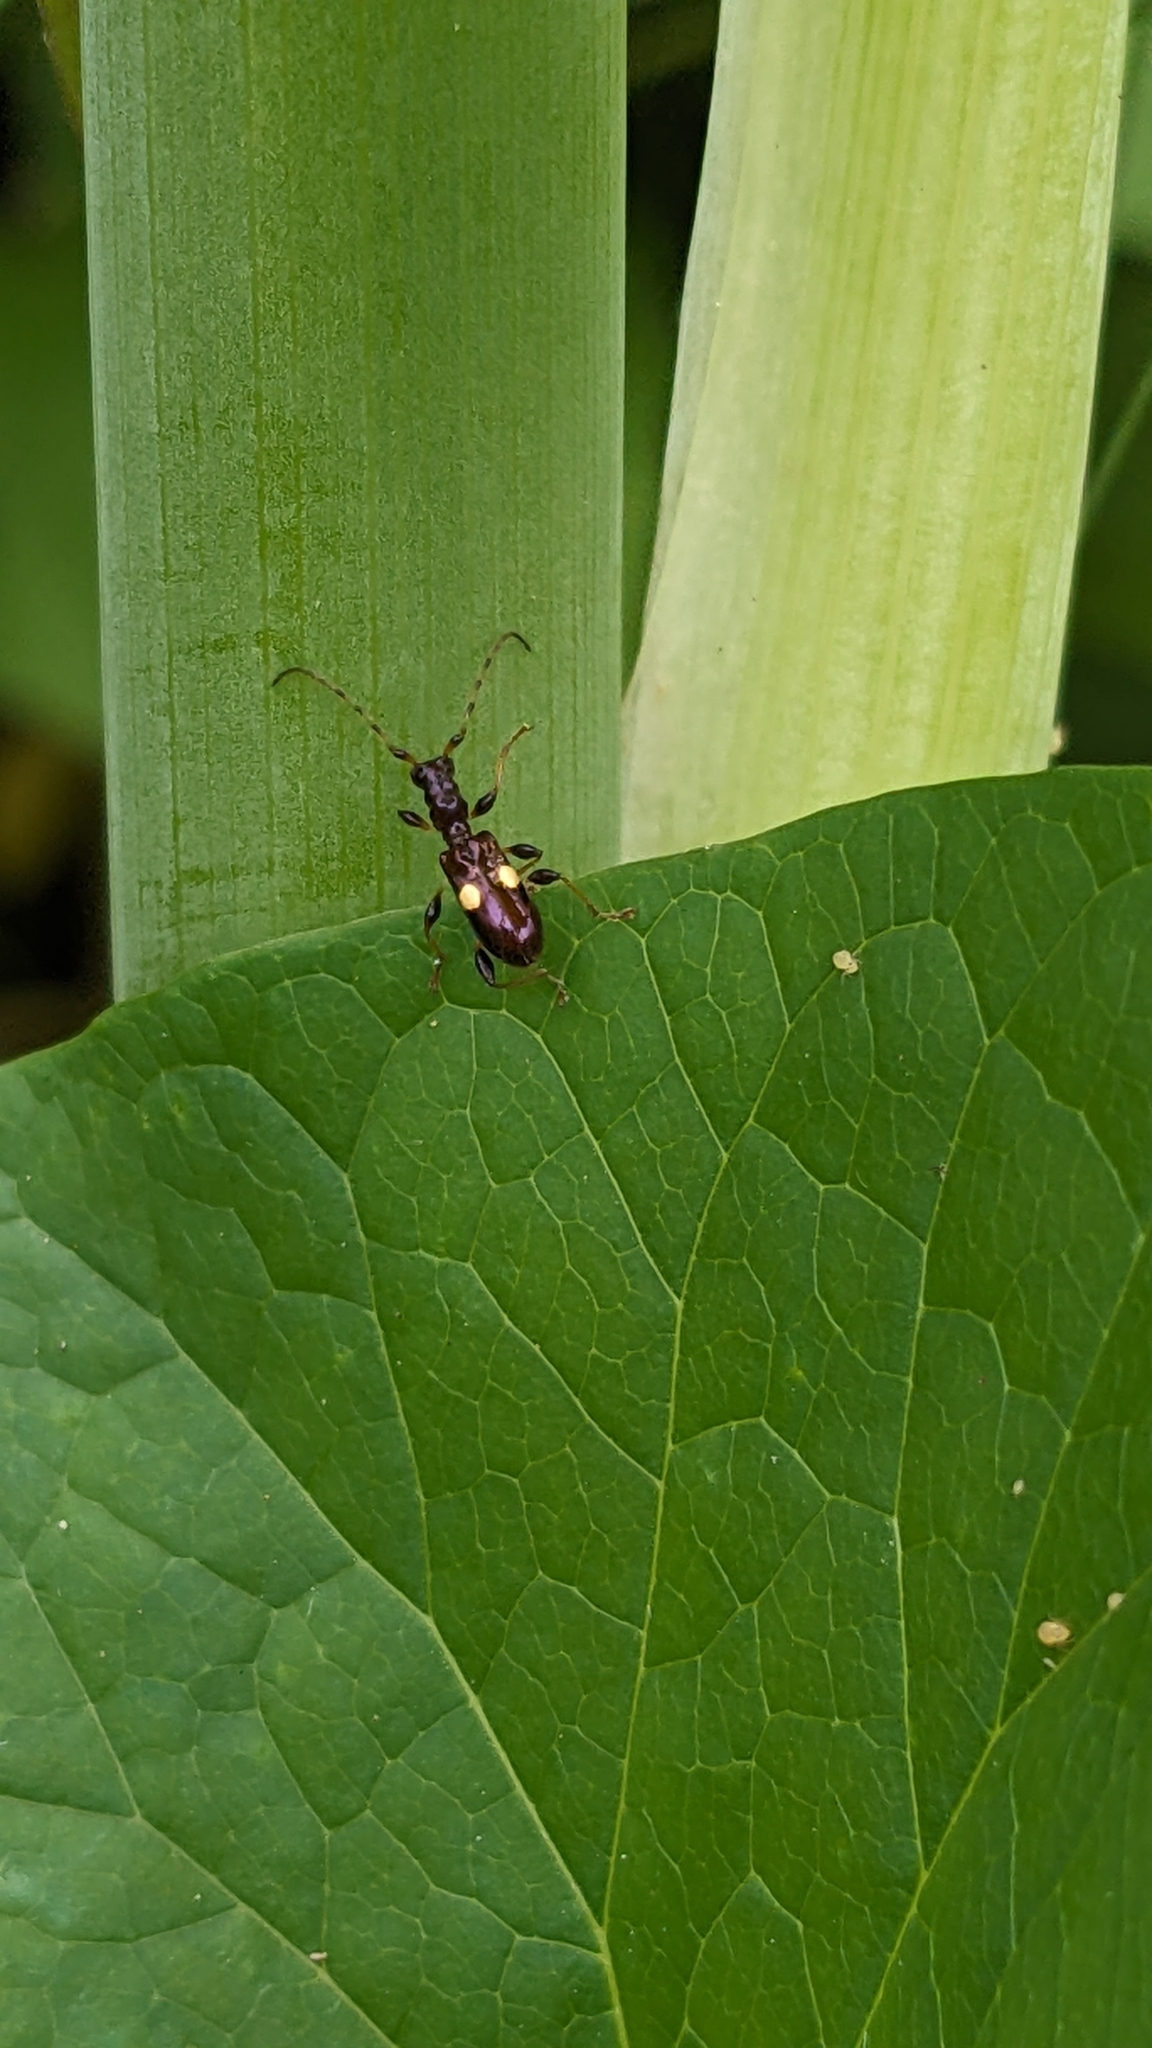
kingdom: Animalia
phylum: Arthropoda
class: Insecta
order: Coleoptera
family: Cerambycidae
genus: Zorion
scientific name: Zorion guttigerum
